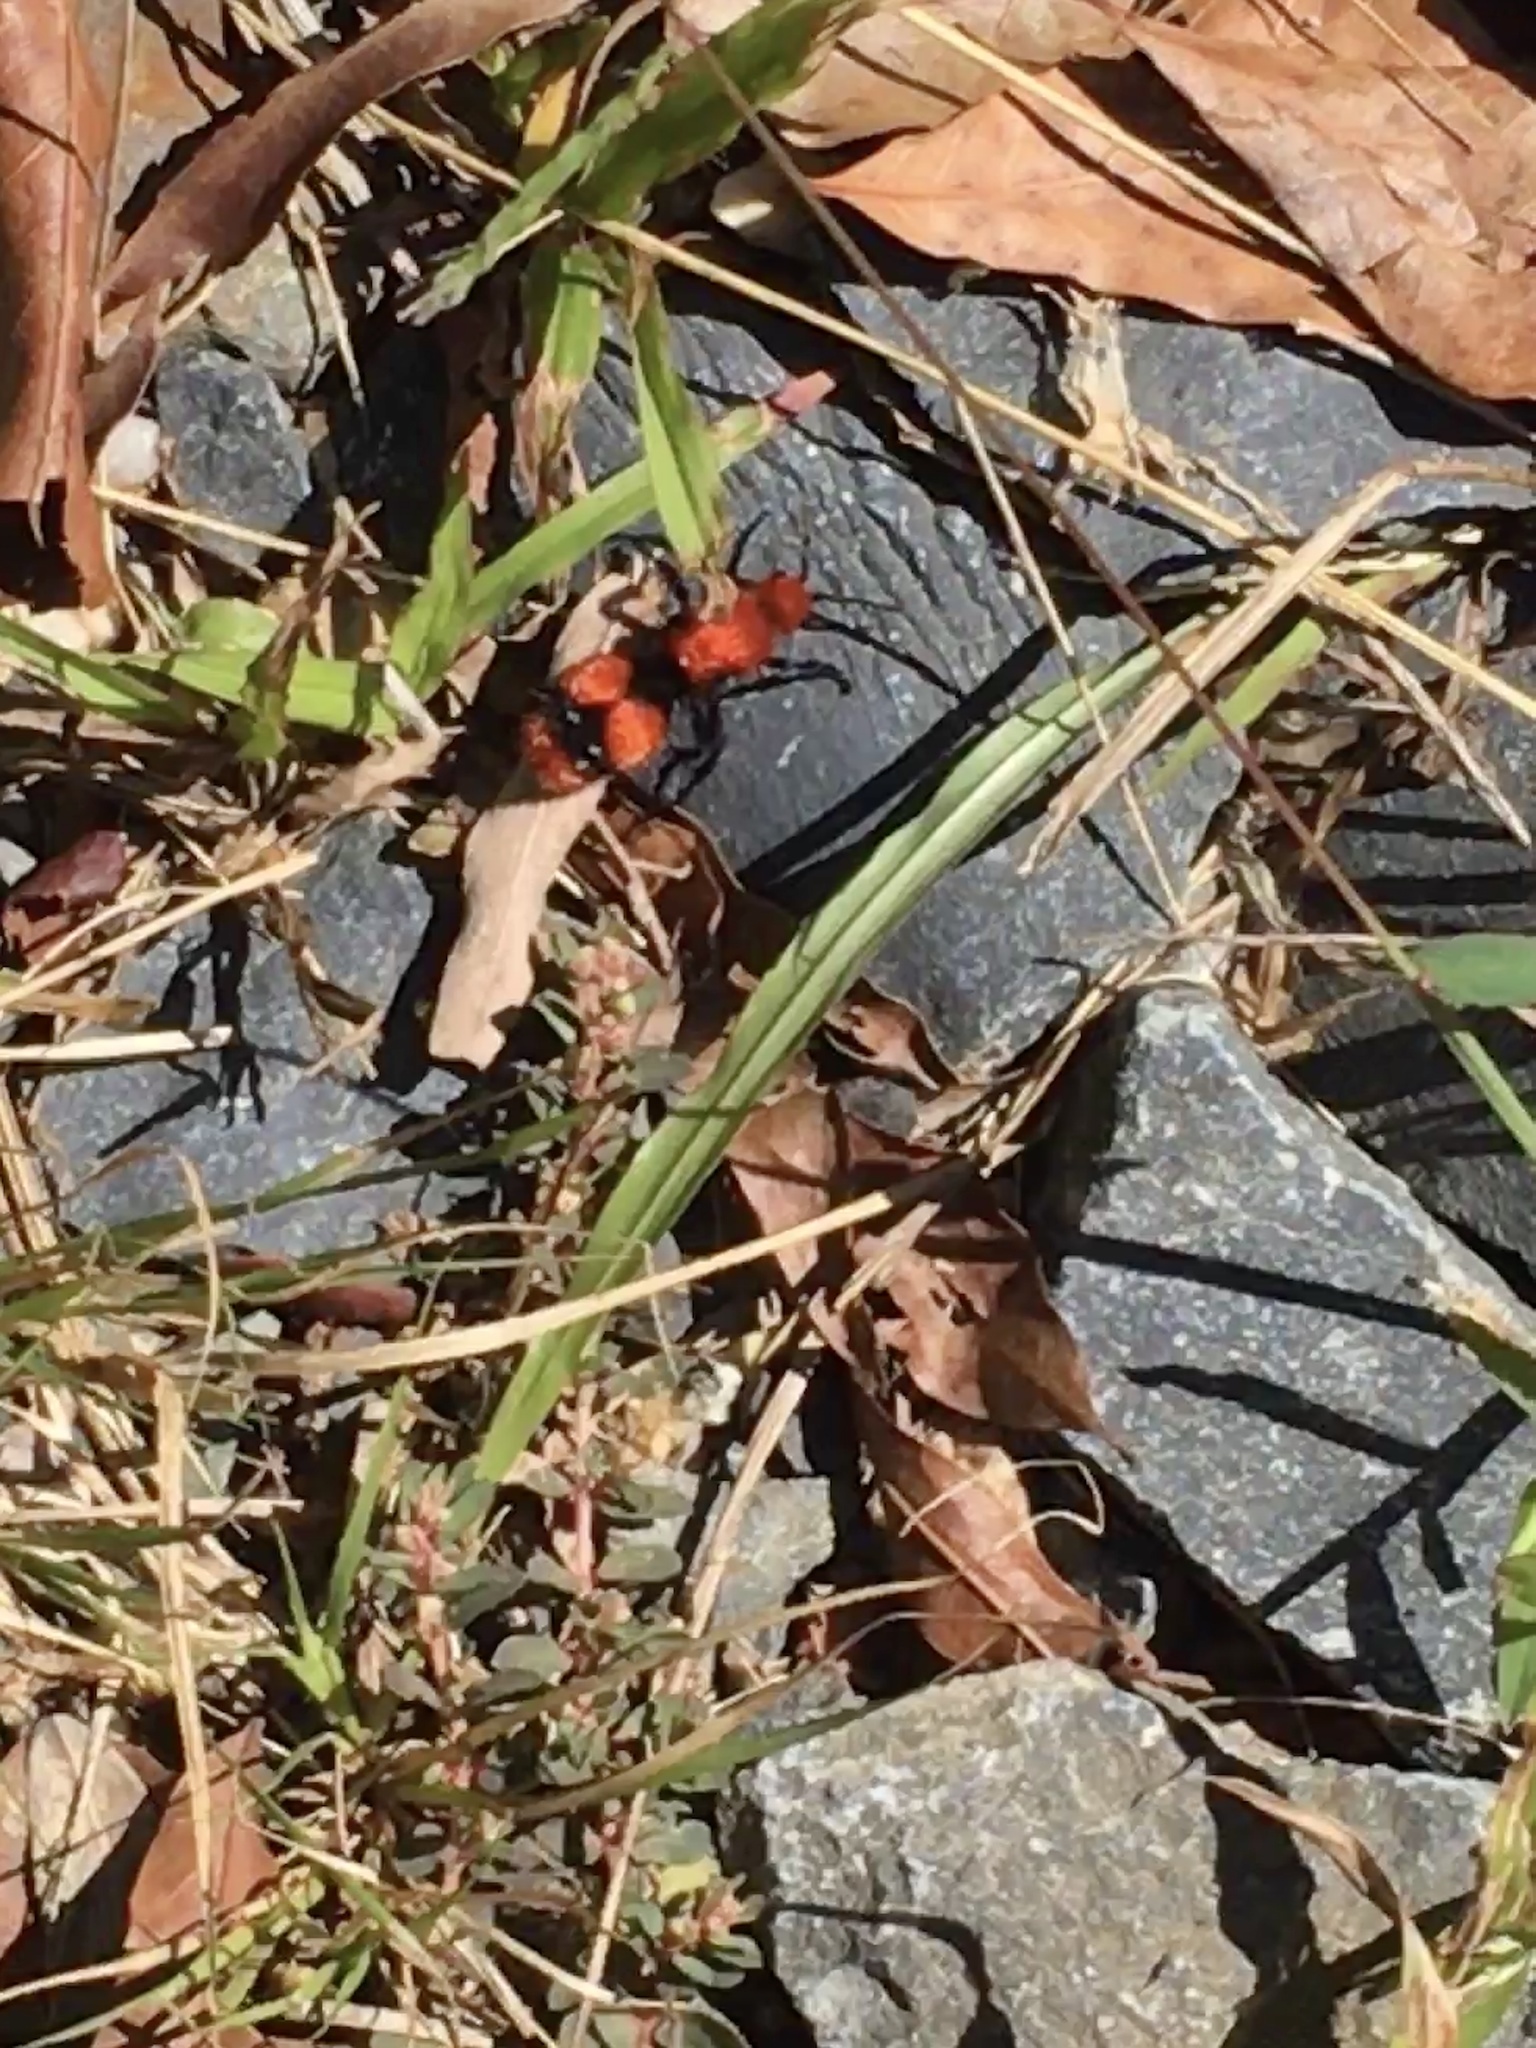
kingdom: Animalia
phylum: Arthropoda
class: Insecta
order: Hymenoptera
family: Mutillidae
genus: Dasymutilla
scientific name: Dasymutilla occidentalis
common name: Common eastern velvet ant
